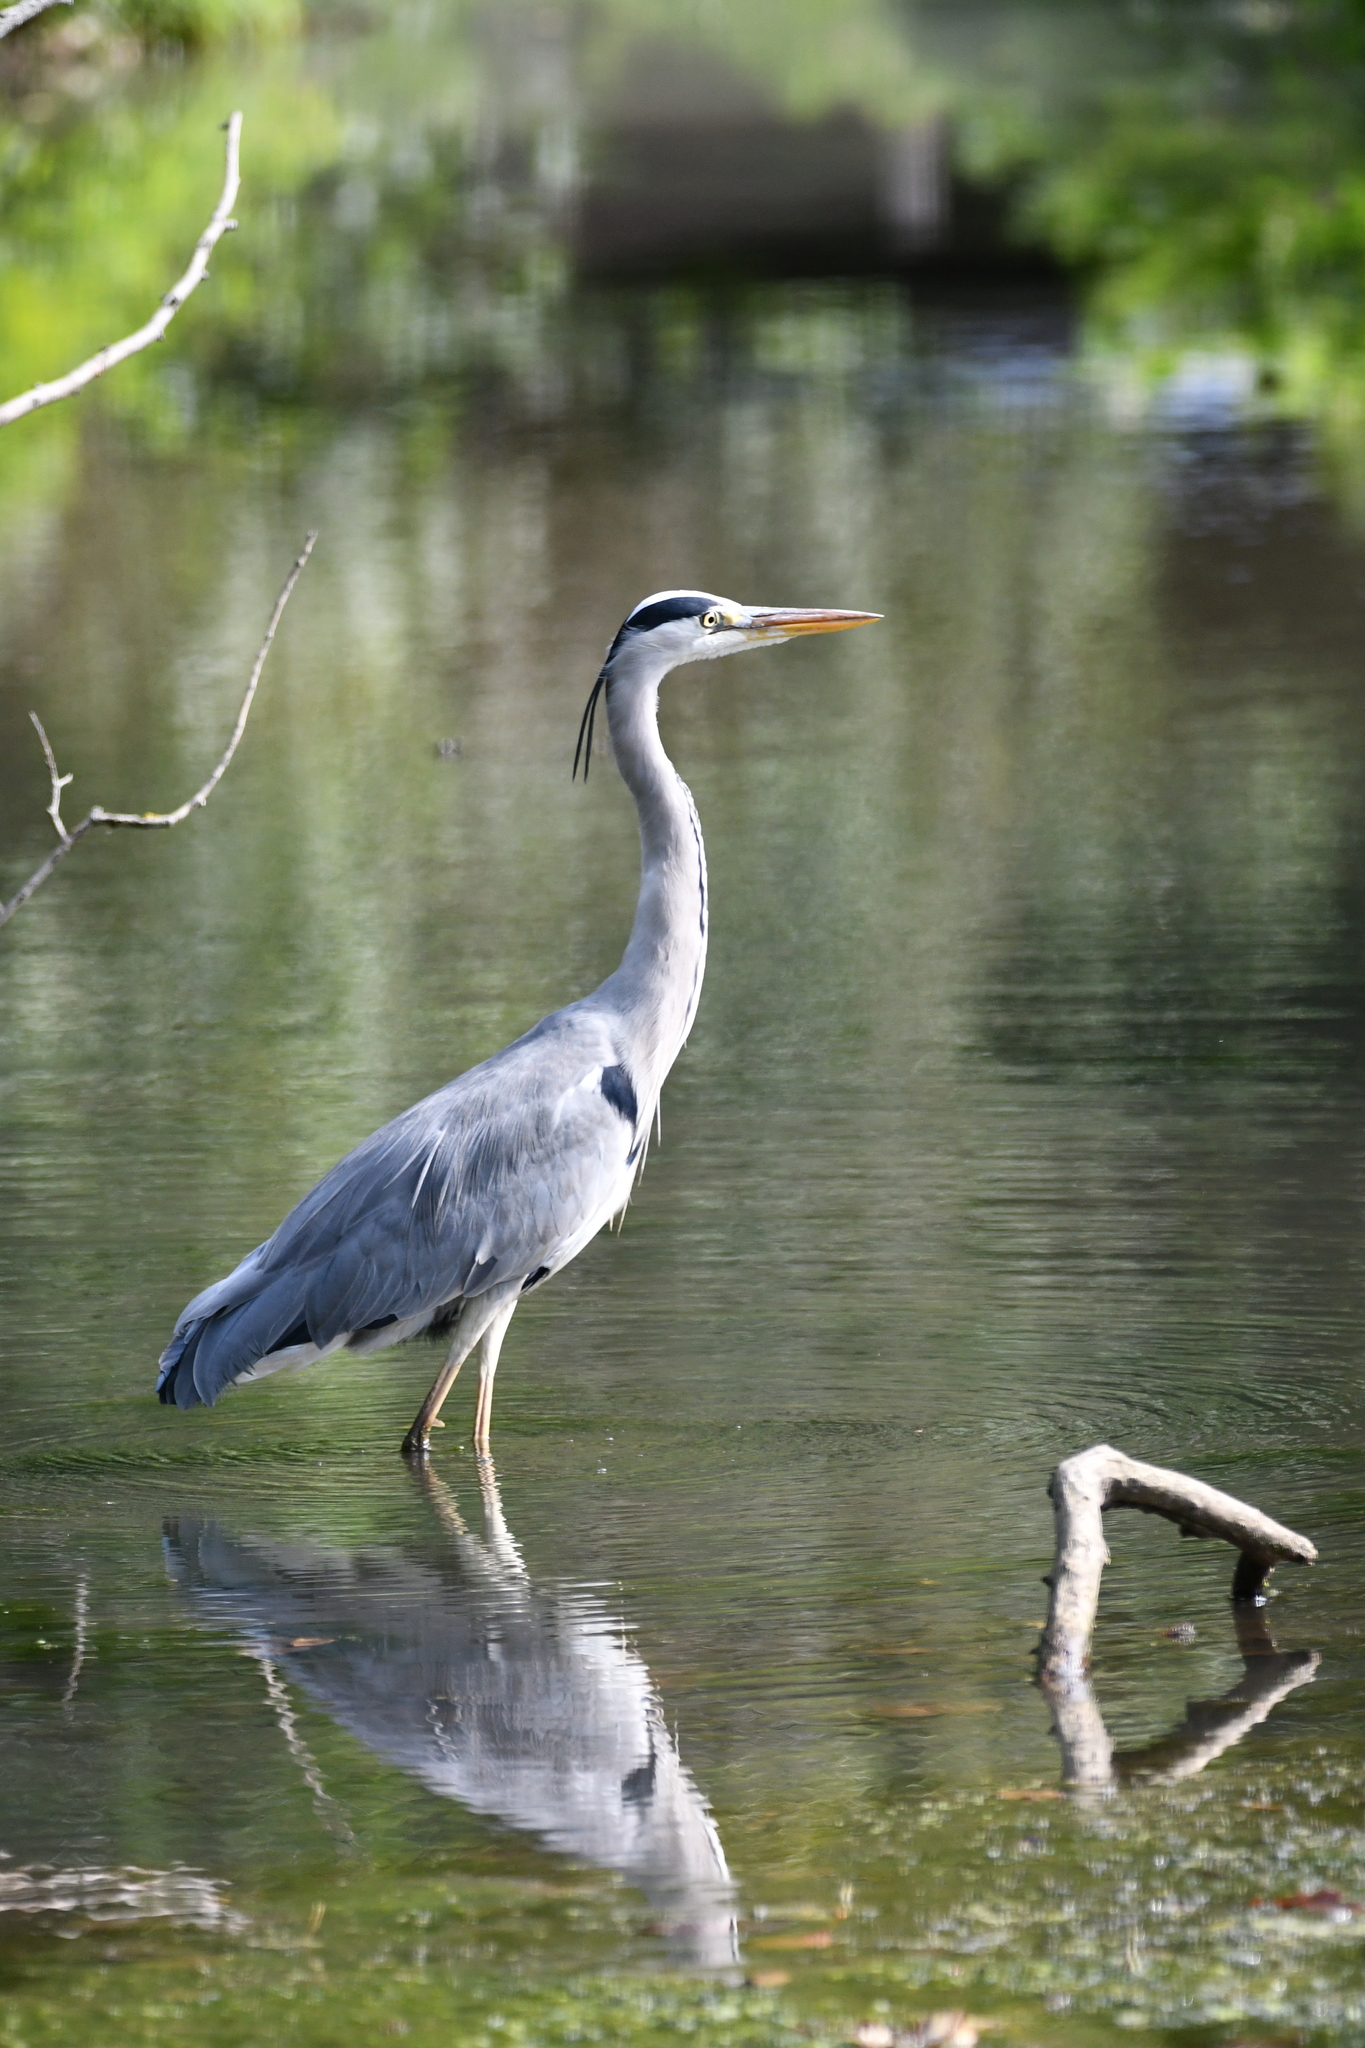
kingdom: Animalia
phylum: Chordata
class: Aves
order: Pelecaniformes
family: Ardeidae
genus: Ardea
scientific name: Ardea cinerea
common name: Grey heron
